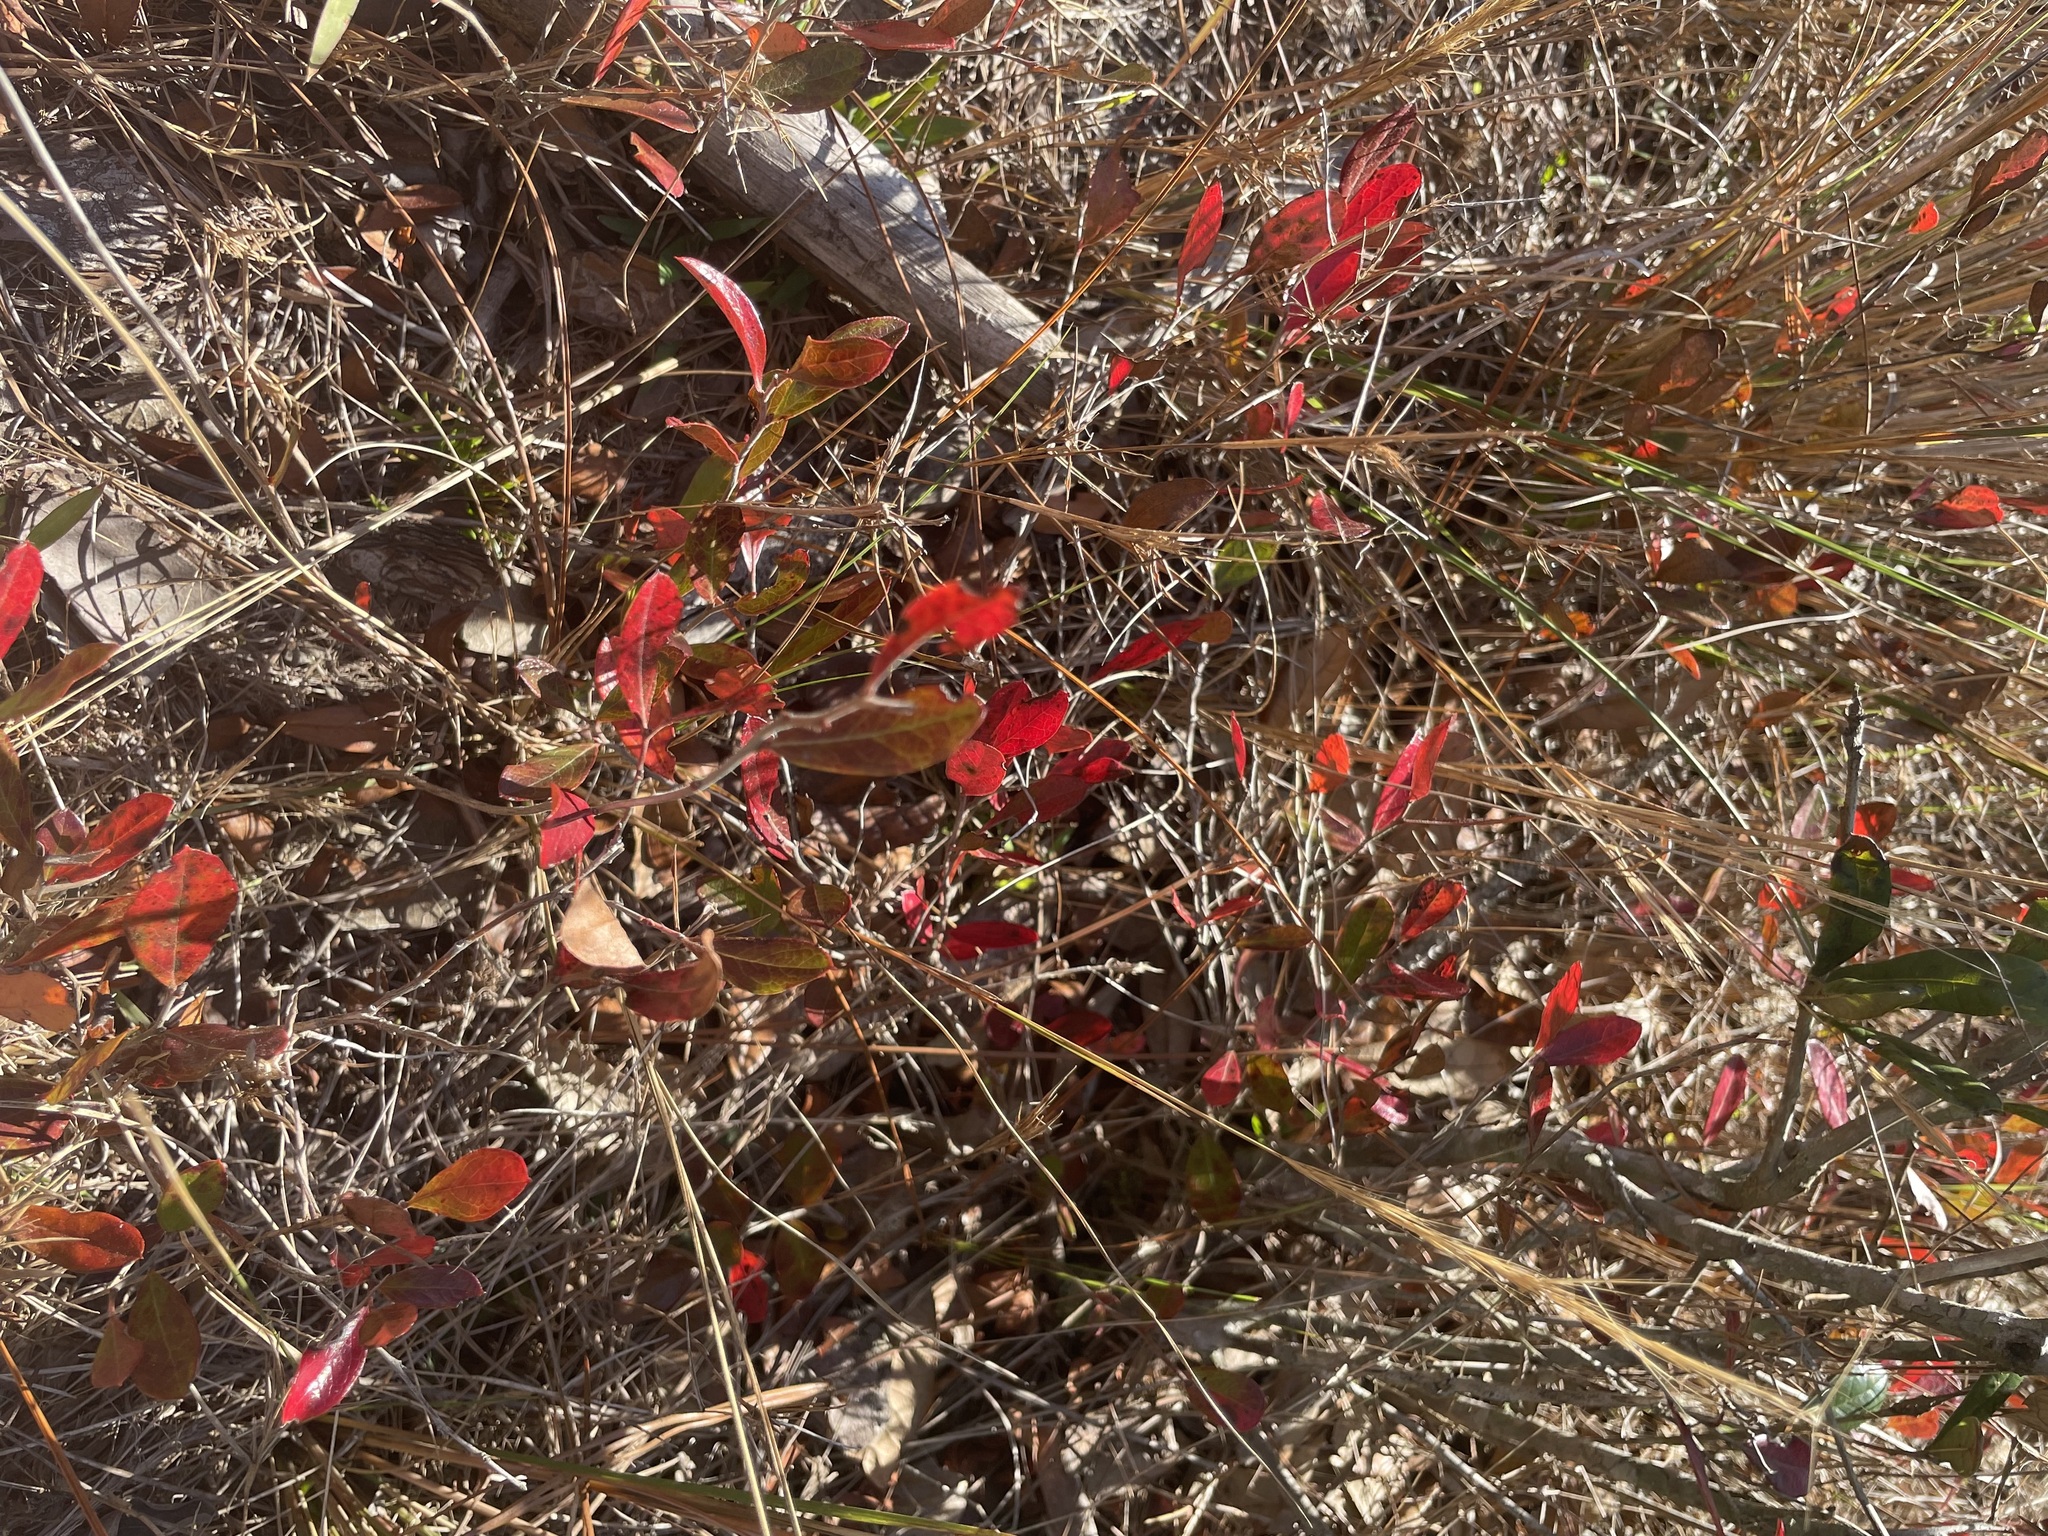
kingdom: Plantae
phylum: Tracheophyta
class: Magnoliopsida
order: Ericales
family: Ericaceae
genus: Gaylussacia
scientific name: Gaylussacia dumosa
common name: Dwarf huckleberry
